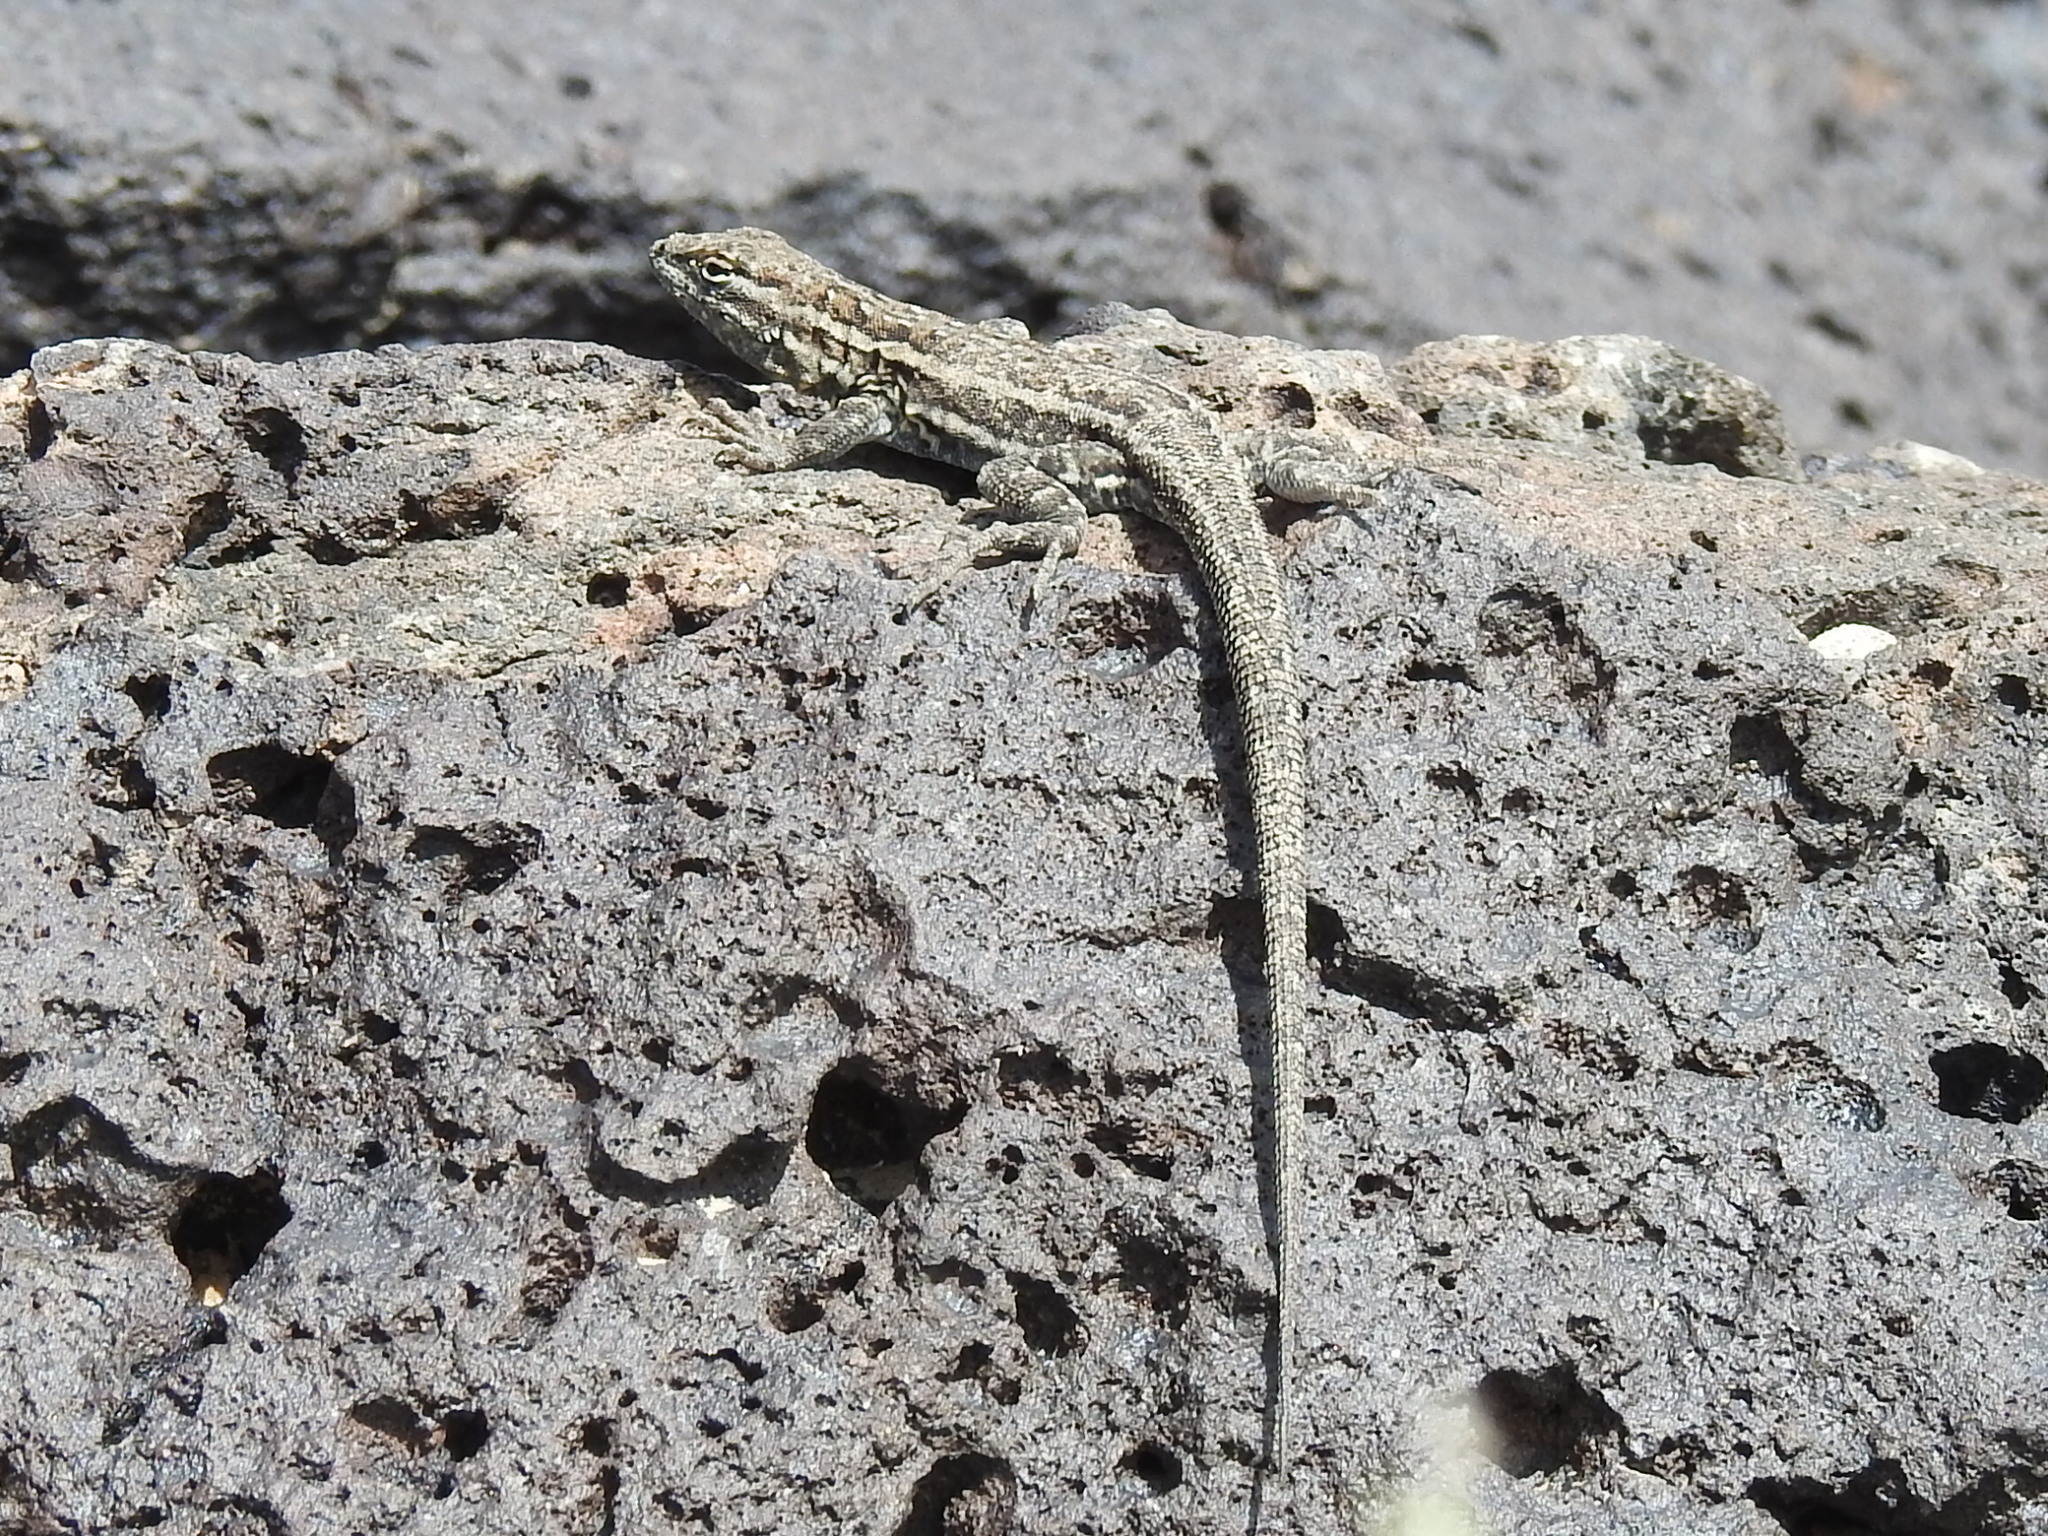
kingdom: Animalia
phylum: Chordata
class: Squamata
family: Phrynosomatidae
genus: Uta
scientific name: Uta stansburiana
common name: Side-blotched lizard
